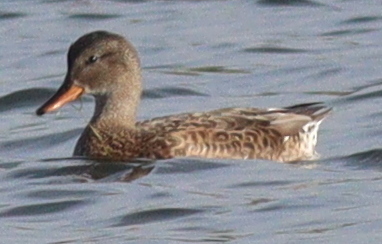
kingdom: Animalia
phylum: Chordata
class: Aves
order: Anseriformes
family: Anatidae
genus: Mareca
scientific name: Mareca strepera
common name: Gadwall
